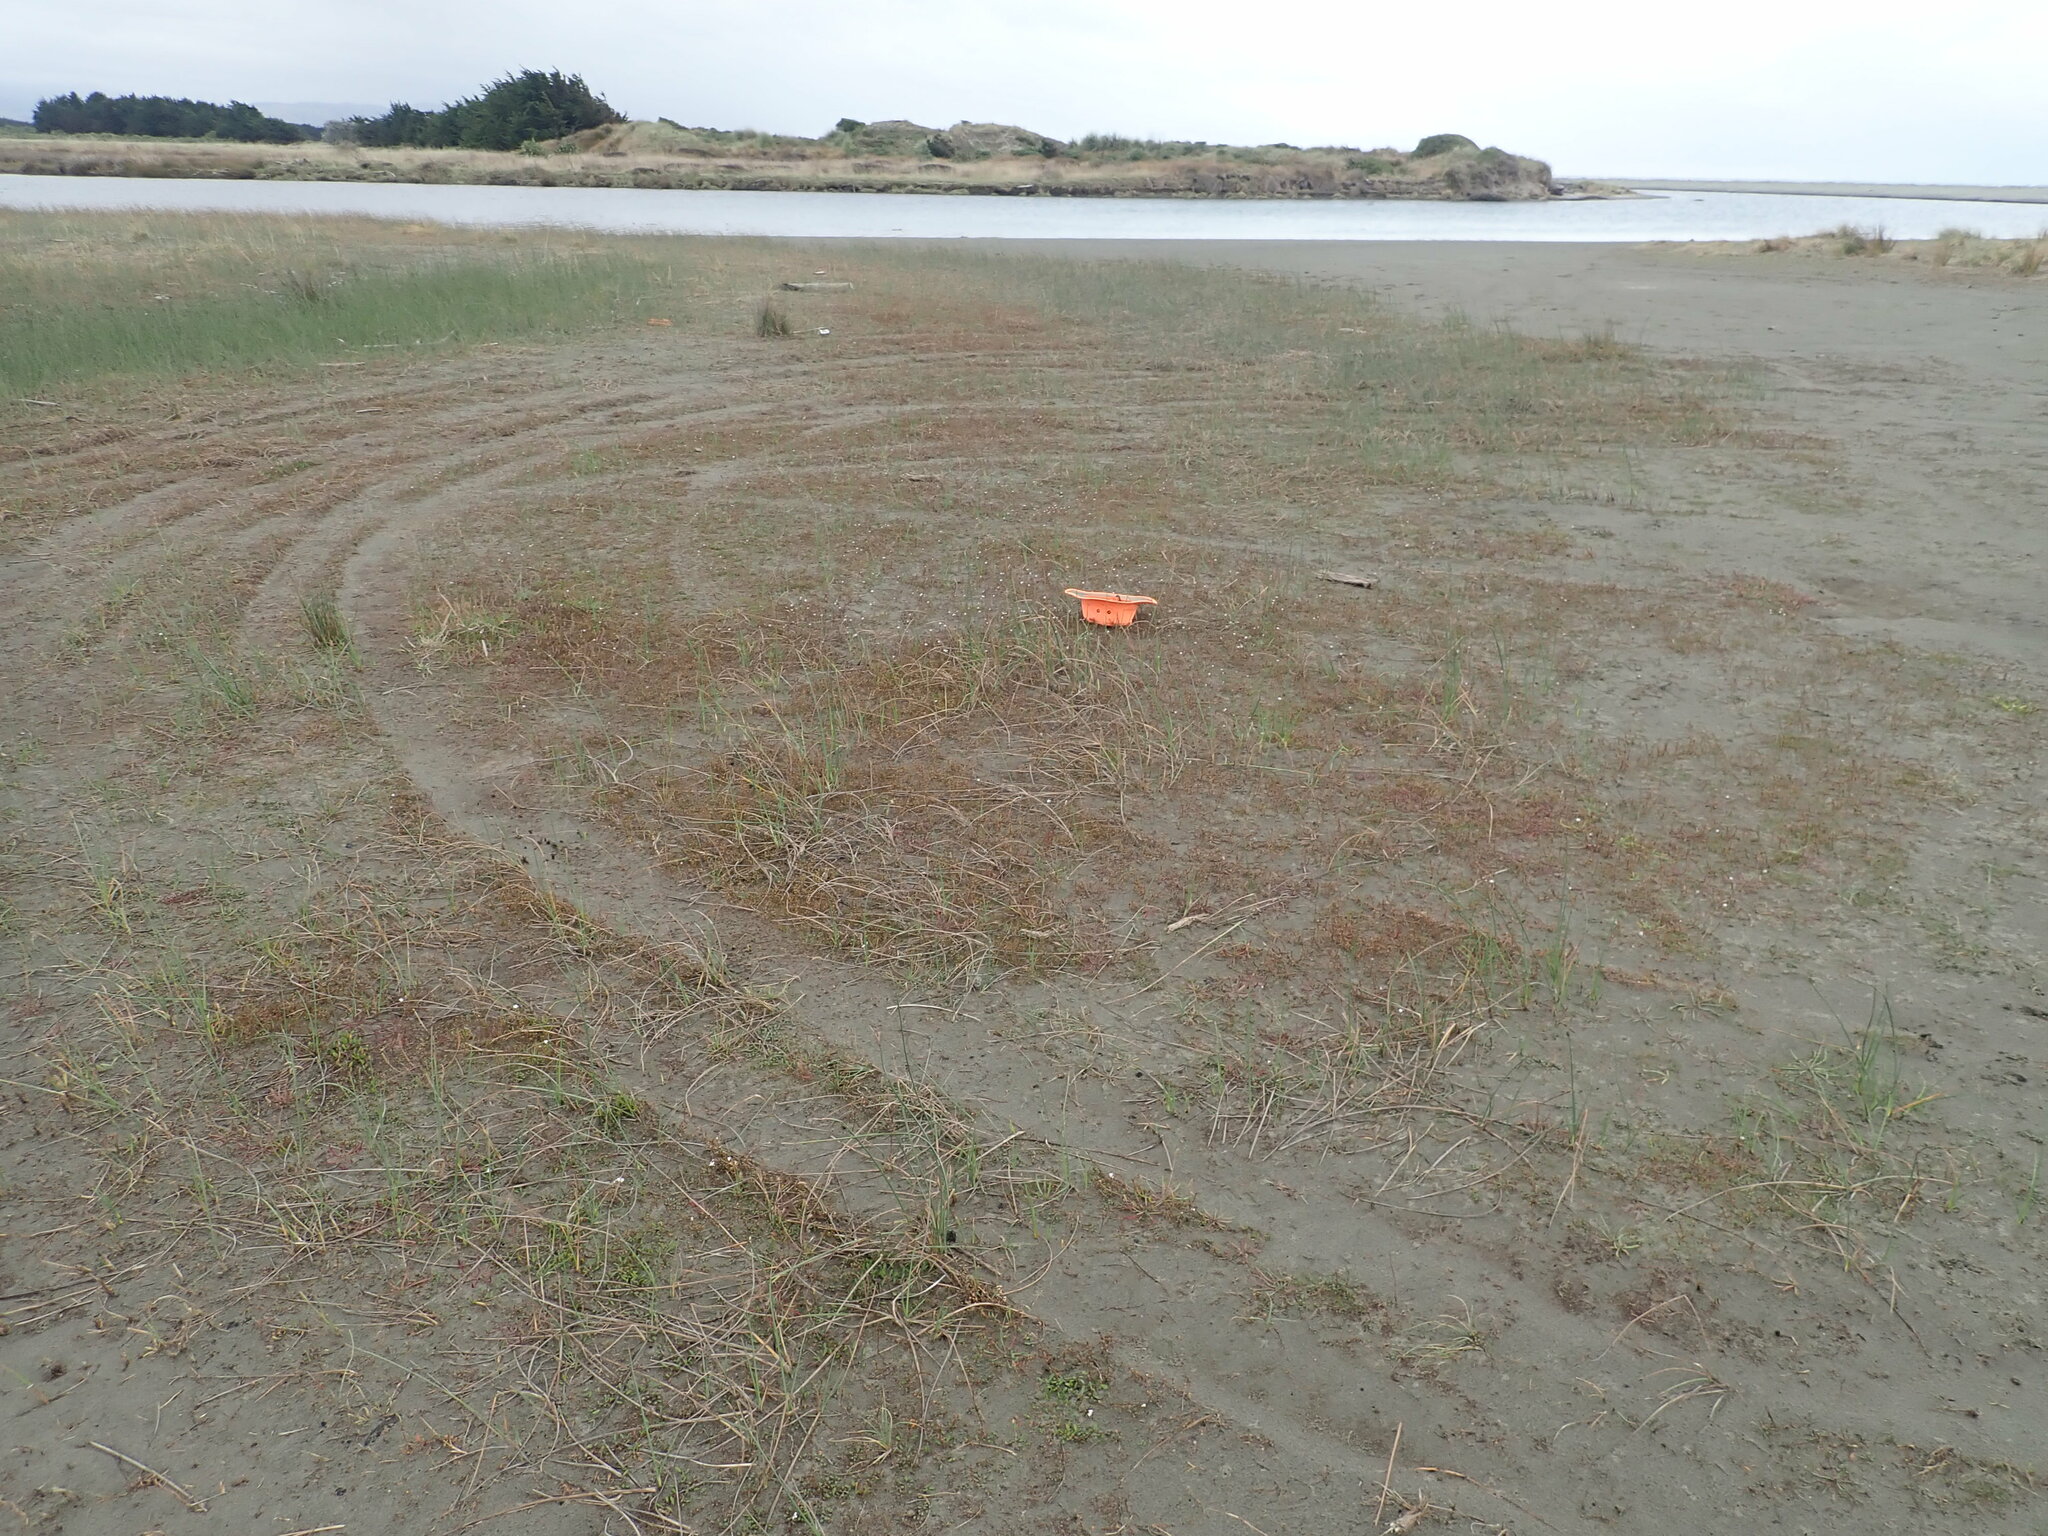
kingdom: Plantae
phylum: Tracheophyta
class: Magnoliopsida
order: Ericales
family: Primulaceae
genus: Samolus
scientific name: Samolus repens
